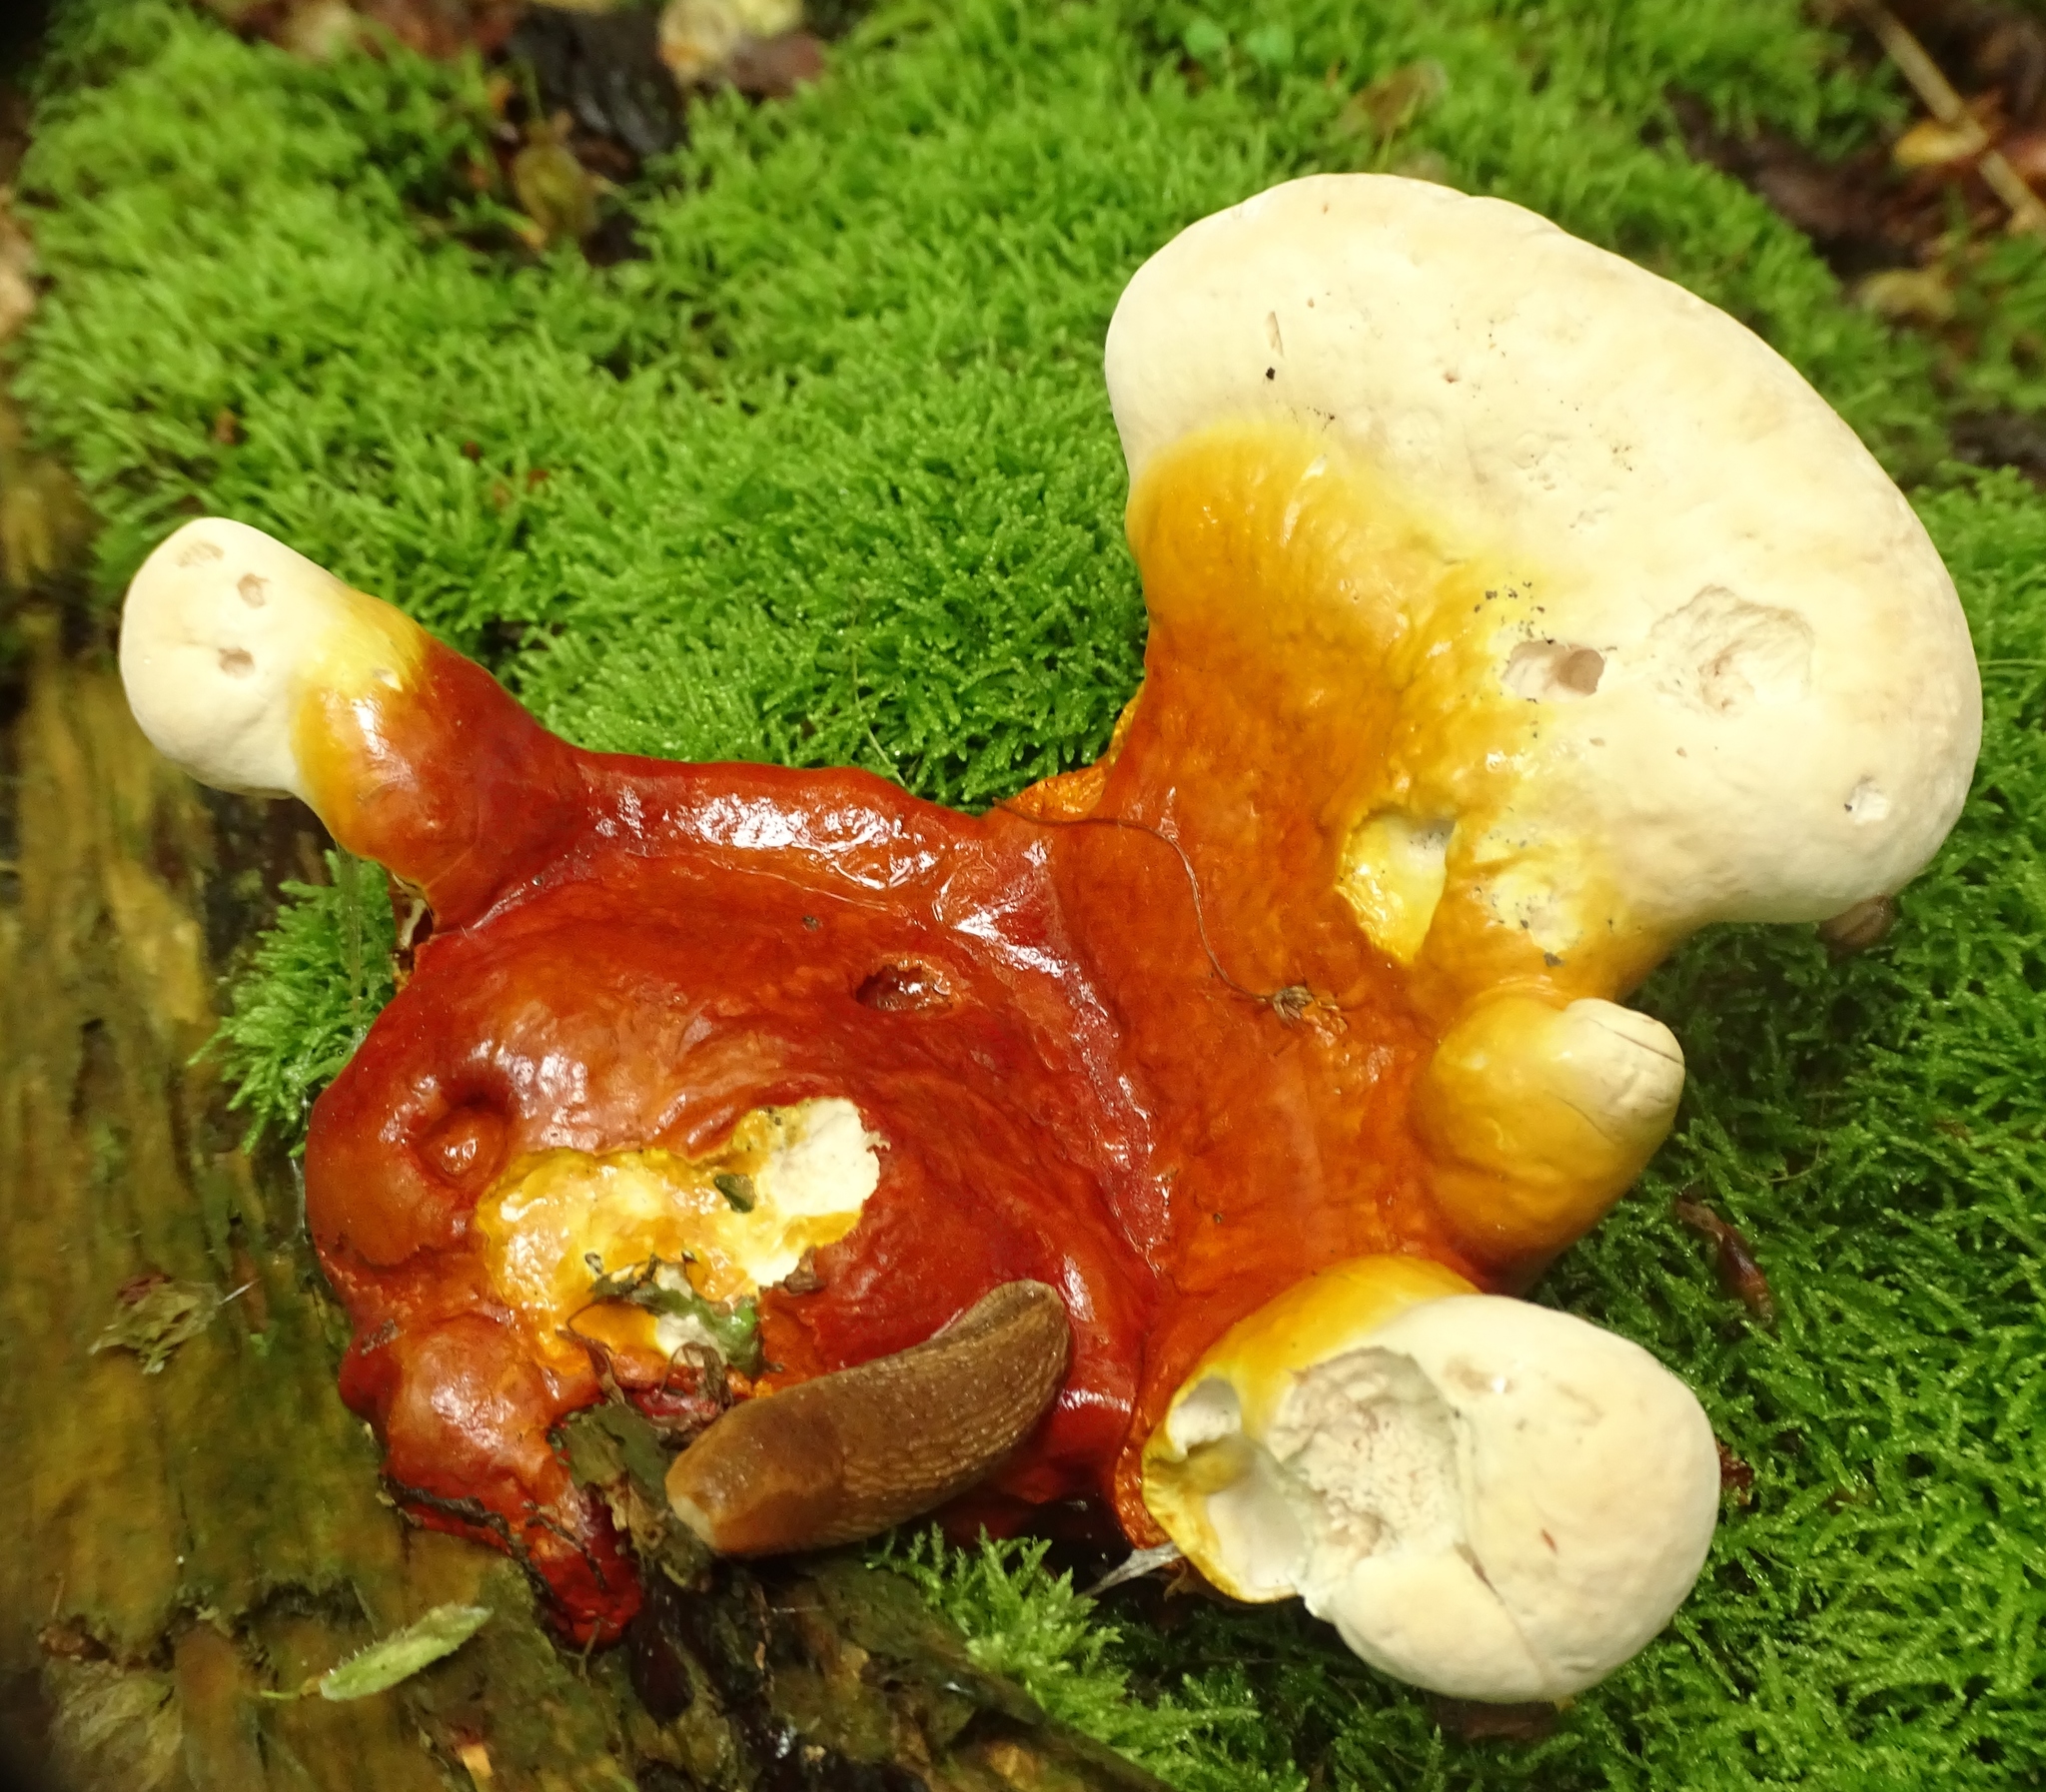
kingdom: Fungi
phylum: Basidiomycota
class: Agaricomycetes
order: Polyporales
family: Polyporaceae
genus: Ganoderma
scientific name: Ganoderma tsugae
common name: Hemlock varnish shelf
